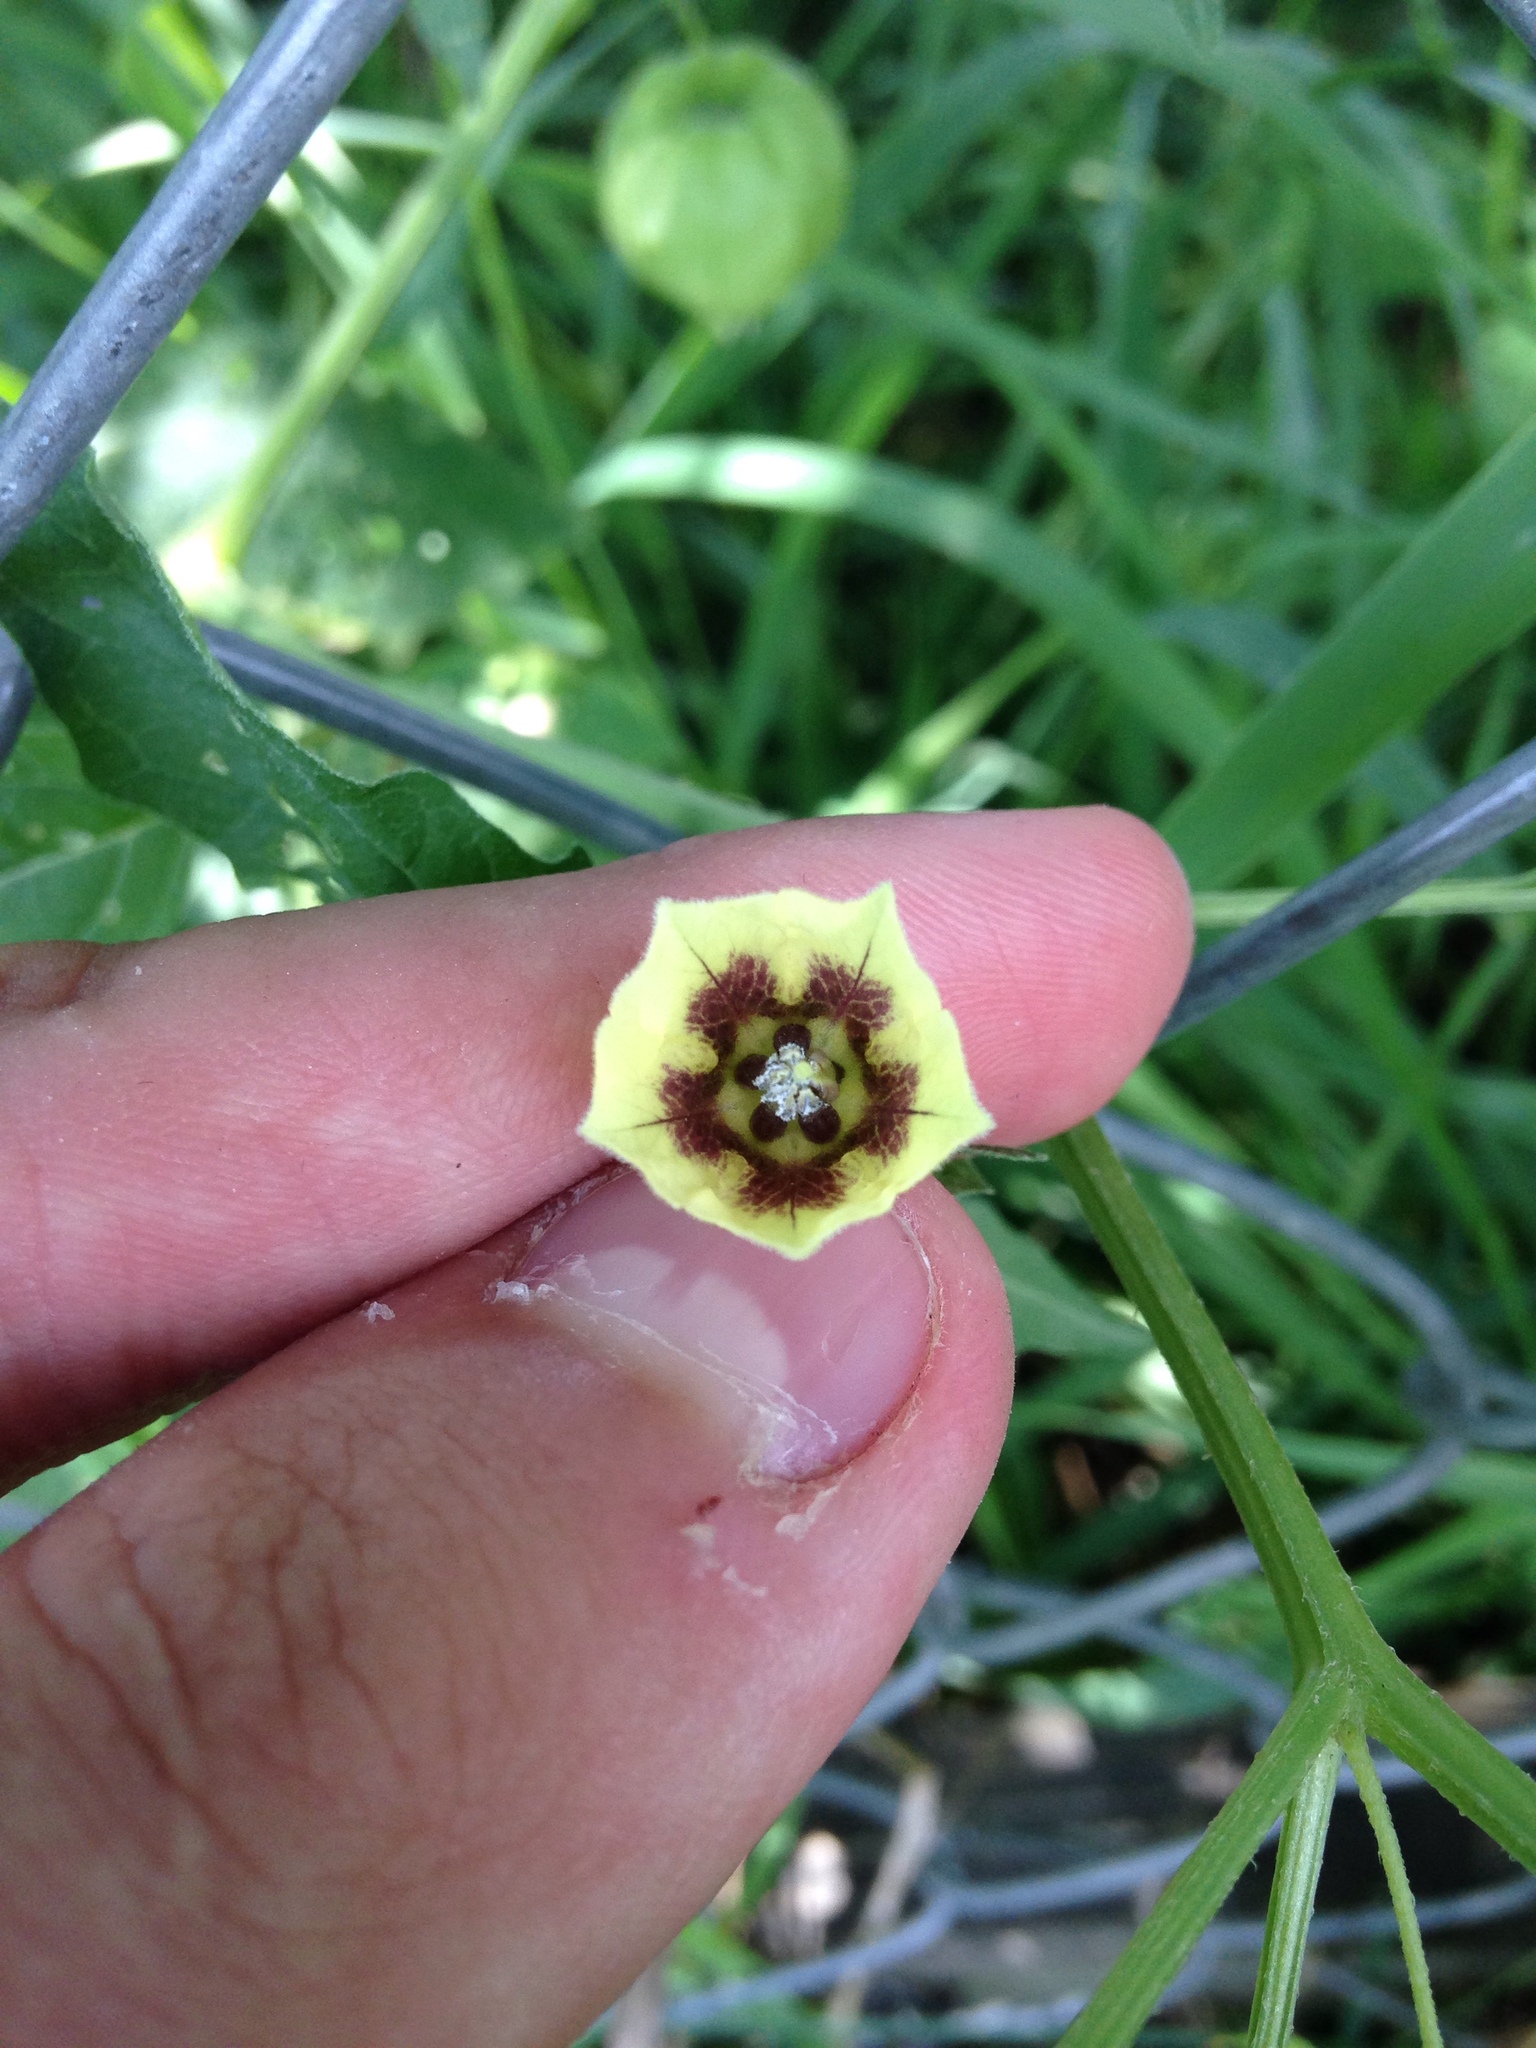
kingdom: Plantae
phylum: Tracheophyta
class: Magnoliopsida
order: Solanales
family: Solanaceae
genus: Physalis
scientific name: Physalis longifolia
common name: Common ground-cherry
